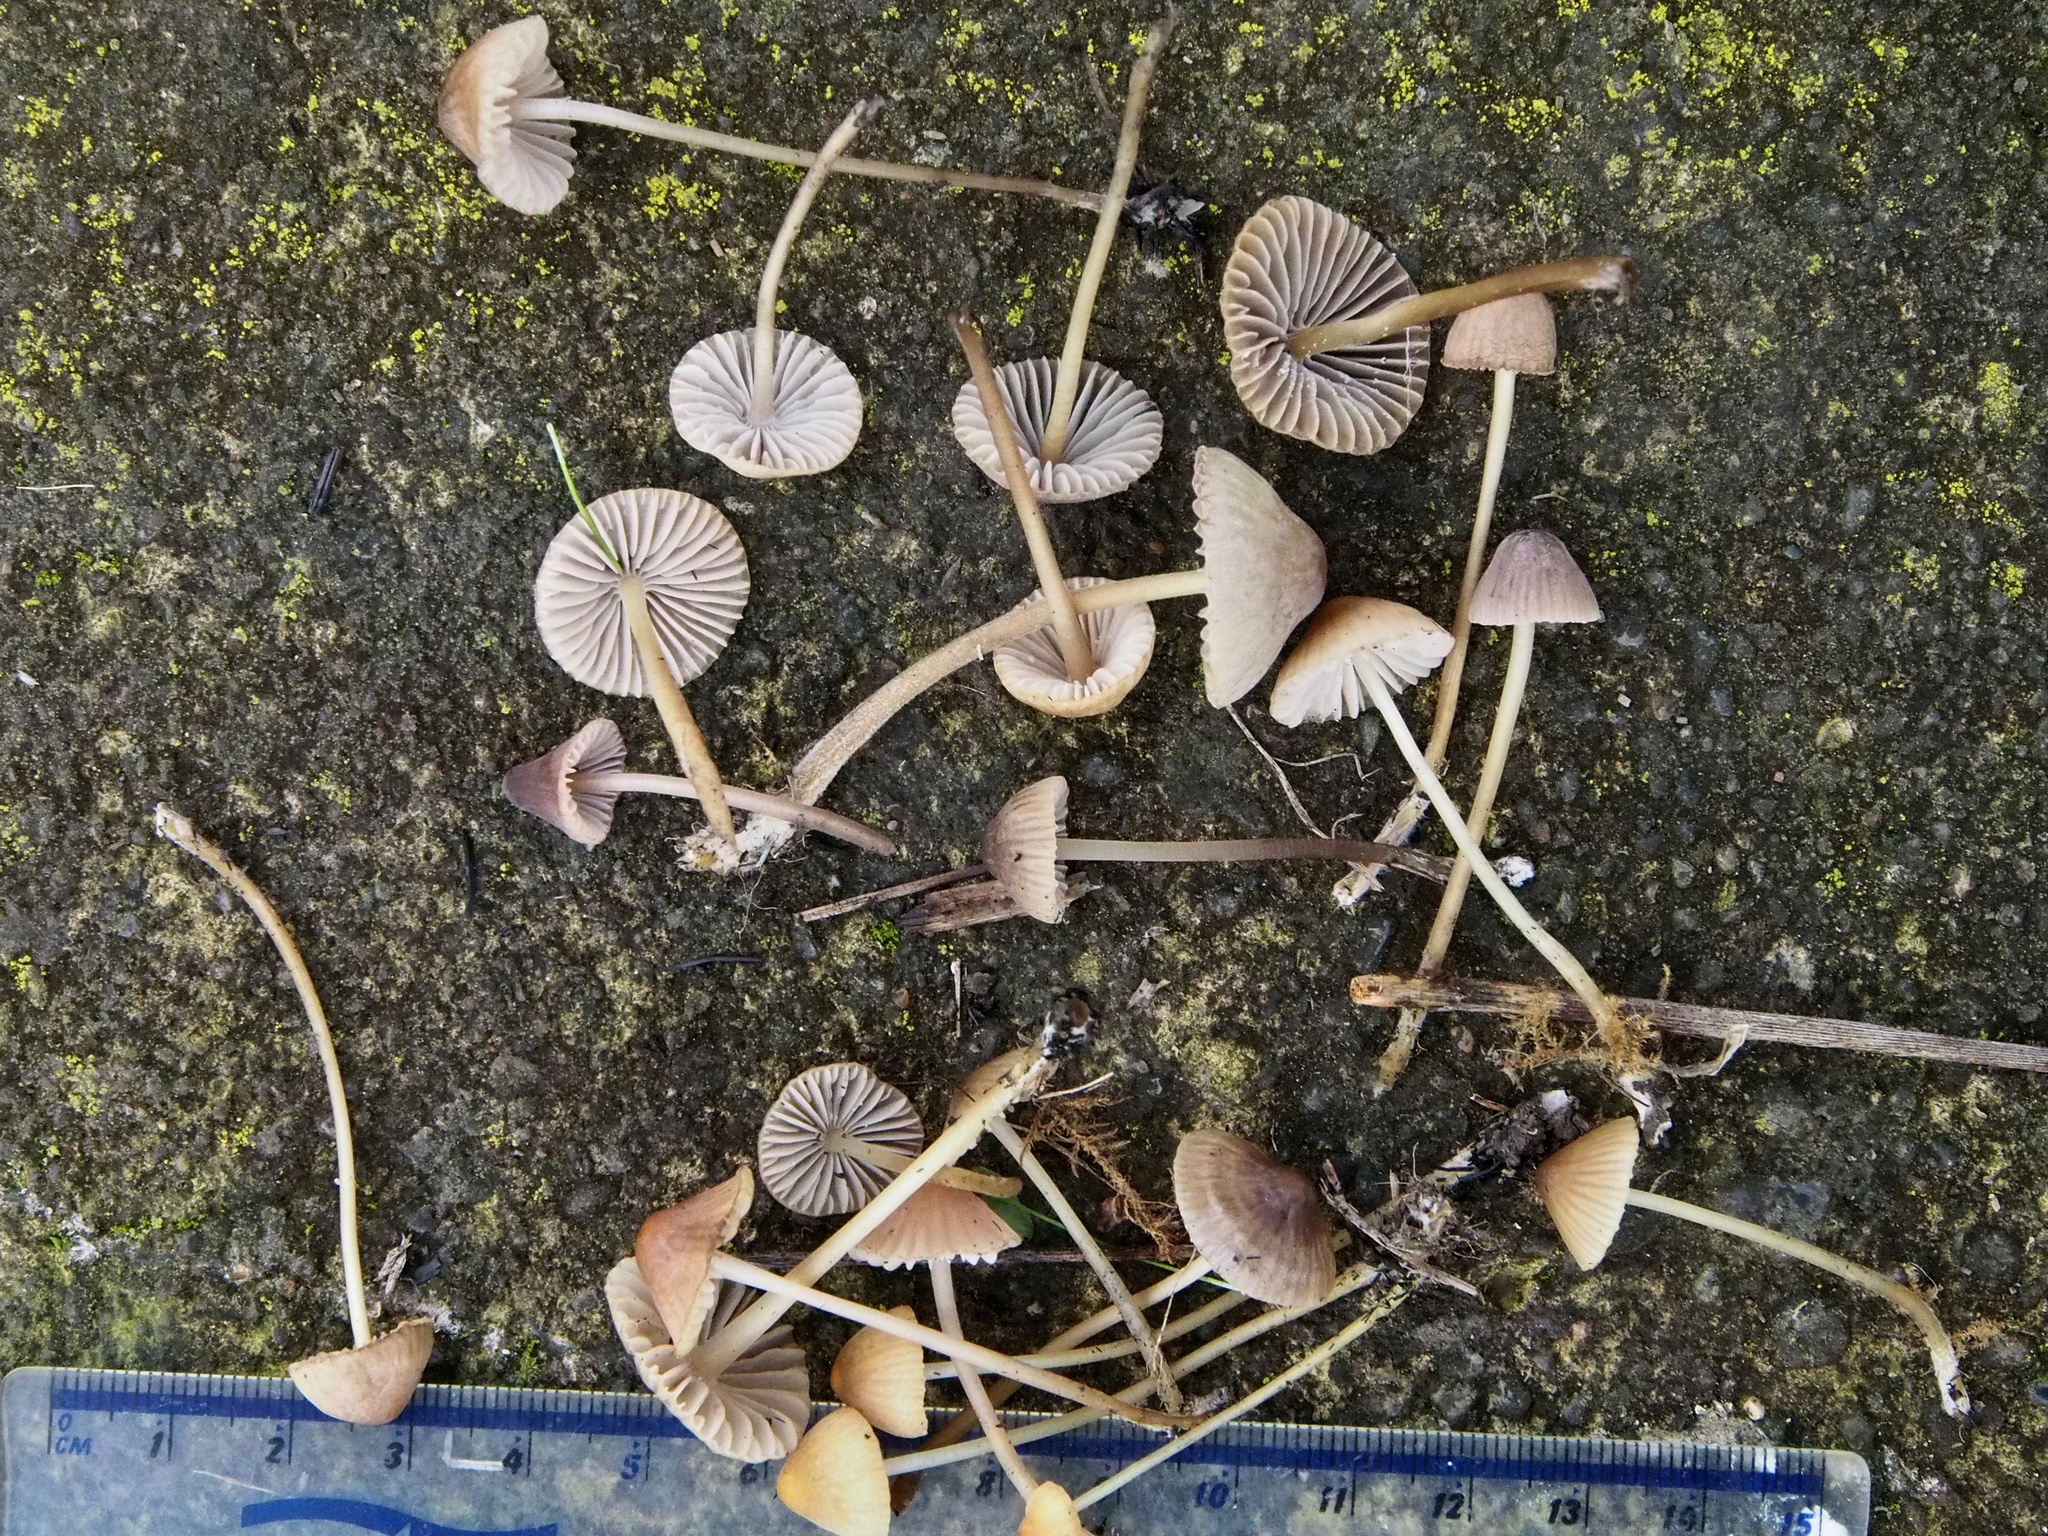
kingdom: Fungi
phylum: Basidiomycota
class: Agaricomycetes
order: Agaricales
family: Mycenaceae
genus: Mycena
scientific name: Mycena citrinomarginata
